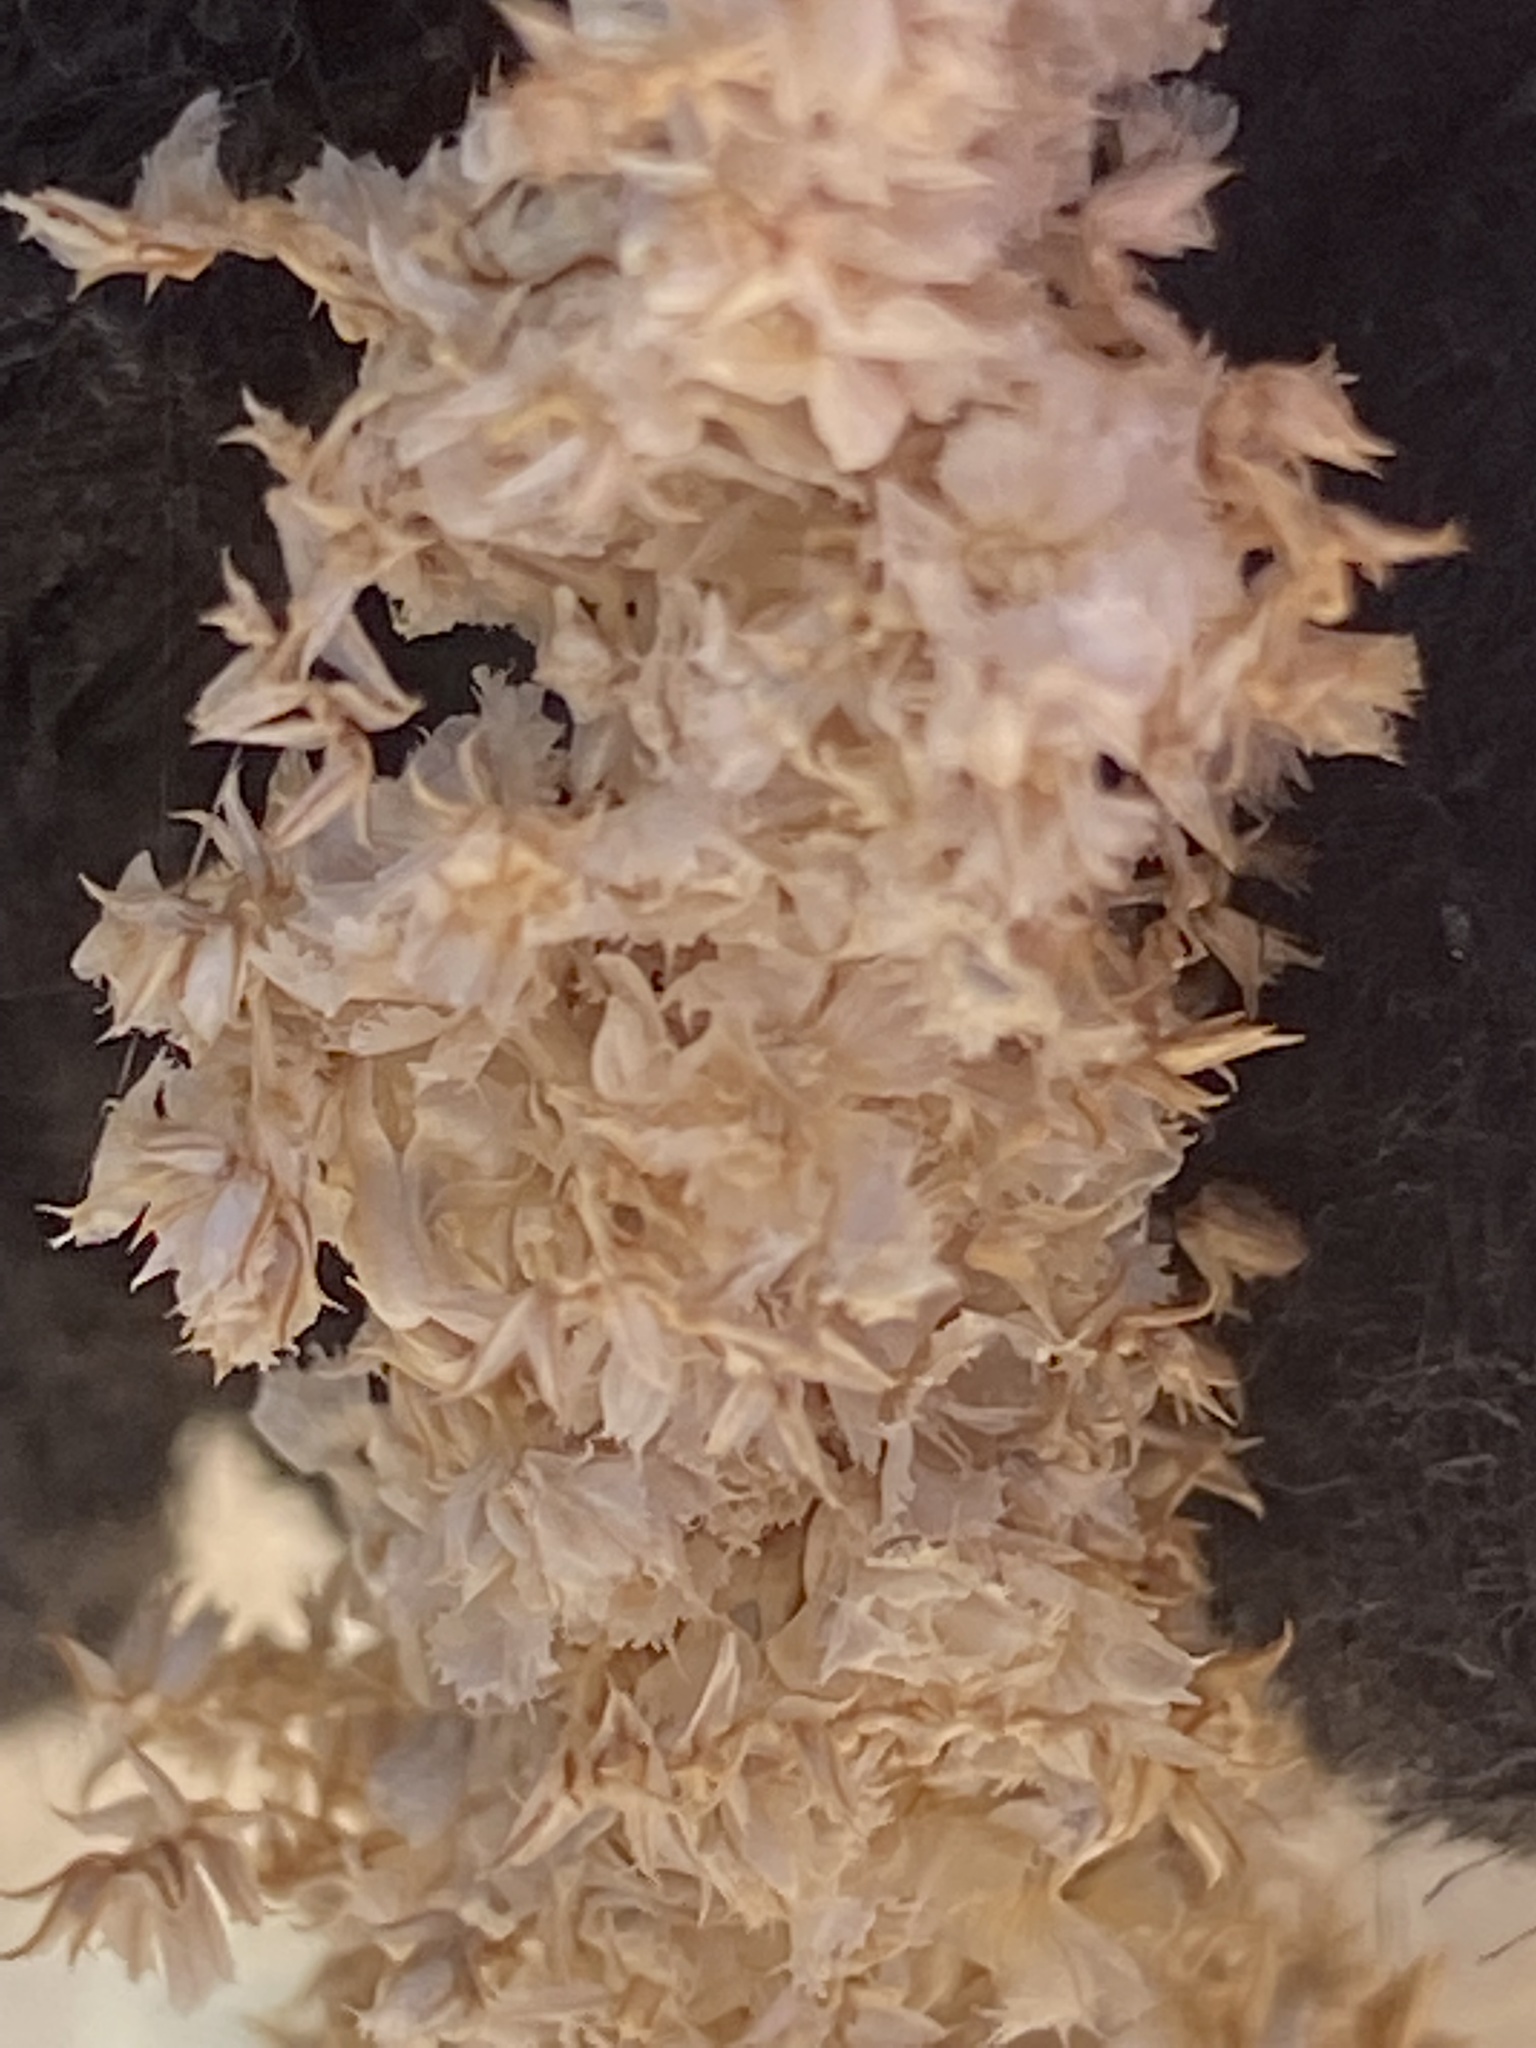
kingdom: Plantae
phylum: Tracheophyta
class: Magnoliopsida
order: Caryophyllales
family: Amaranthaceae
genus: Amaranthus
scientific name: Amaranthus fimbriatus
